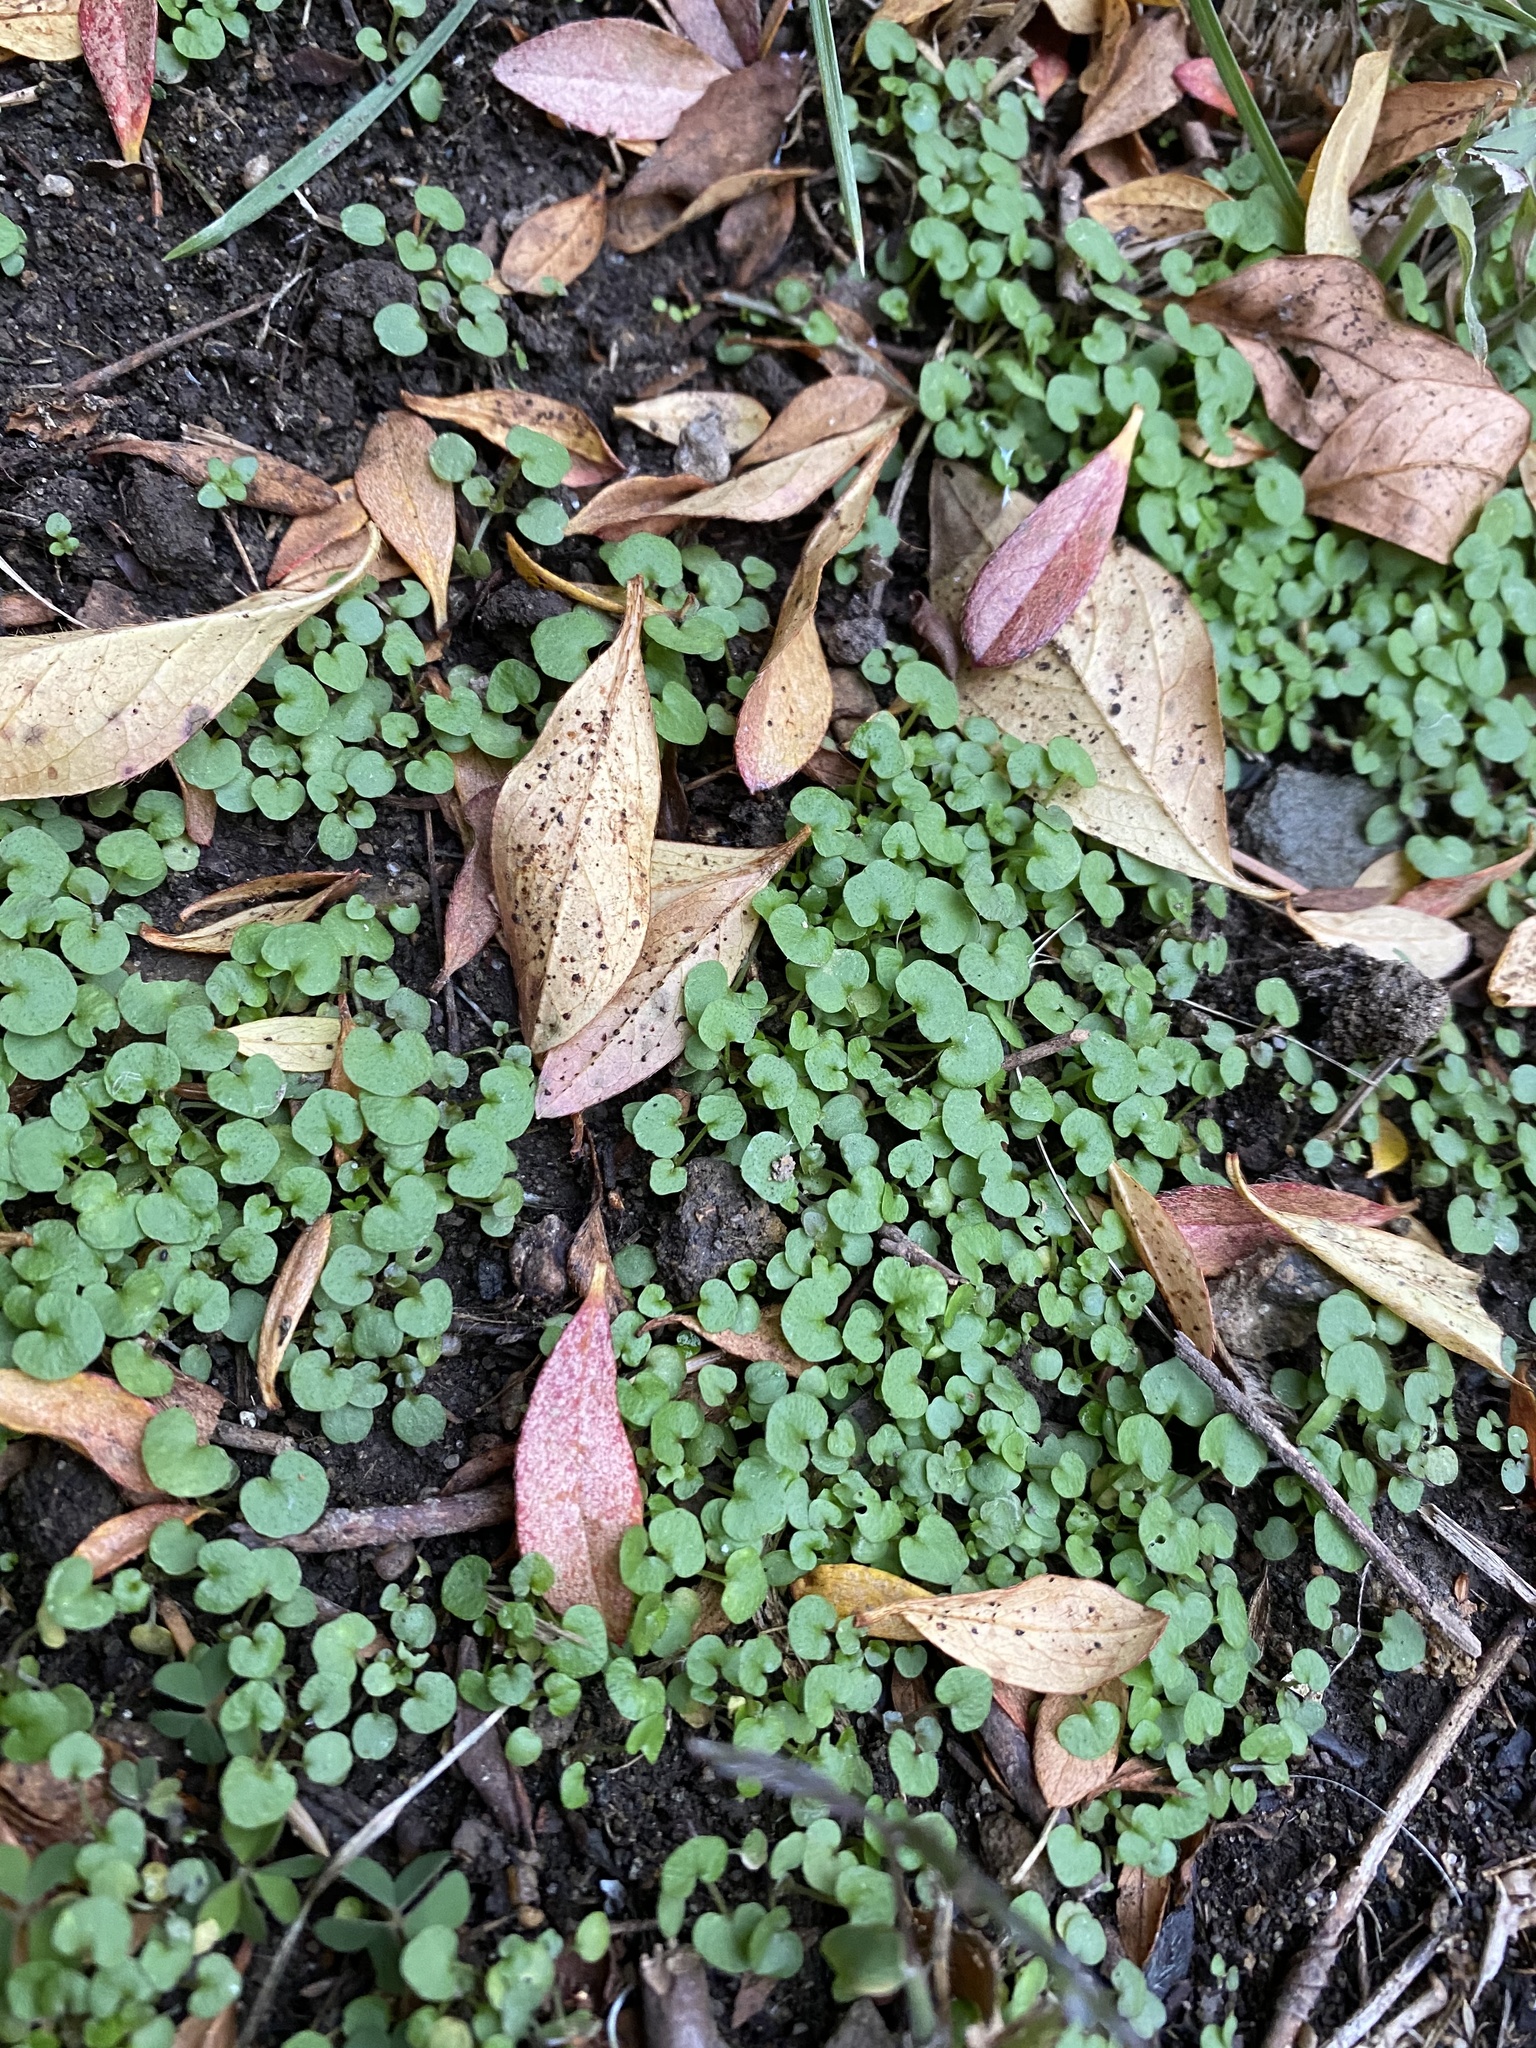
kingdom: Plantae
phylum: Tracheophyta
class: Magnoliopsida
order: Brassicales
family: Brassicaceae
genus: Cardamine
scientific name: Cardamine hirsuta
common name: Hairy bittercress
